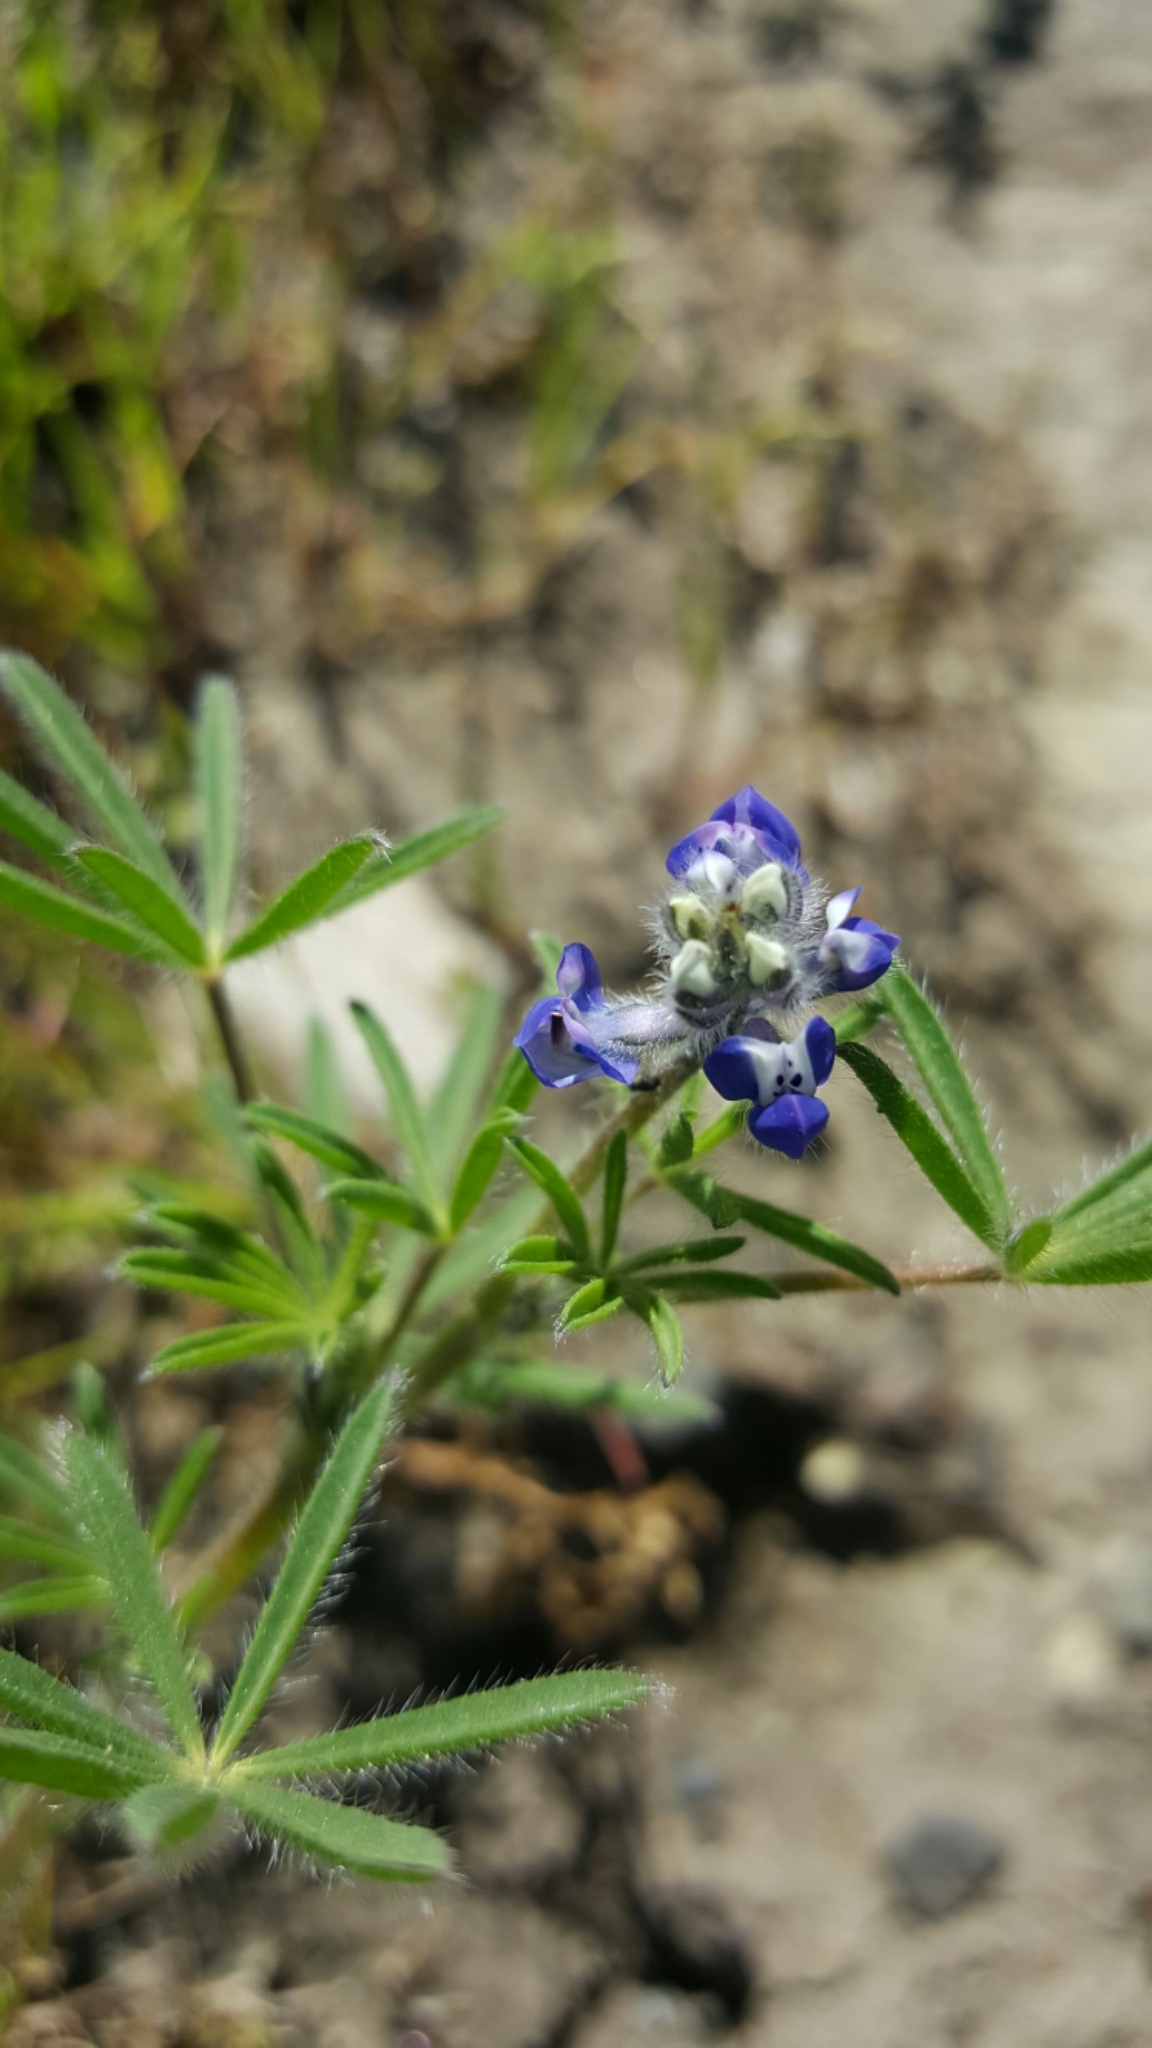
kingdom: Plantae
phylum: Tracheophyta
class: Magnoliopsida
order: Fabales
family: Fabaceae
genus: Lupinus
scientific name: Lupinus bicolor
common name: Miniature lupine
